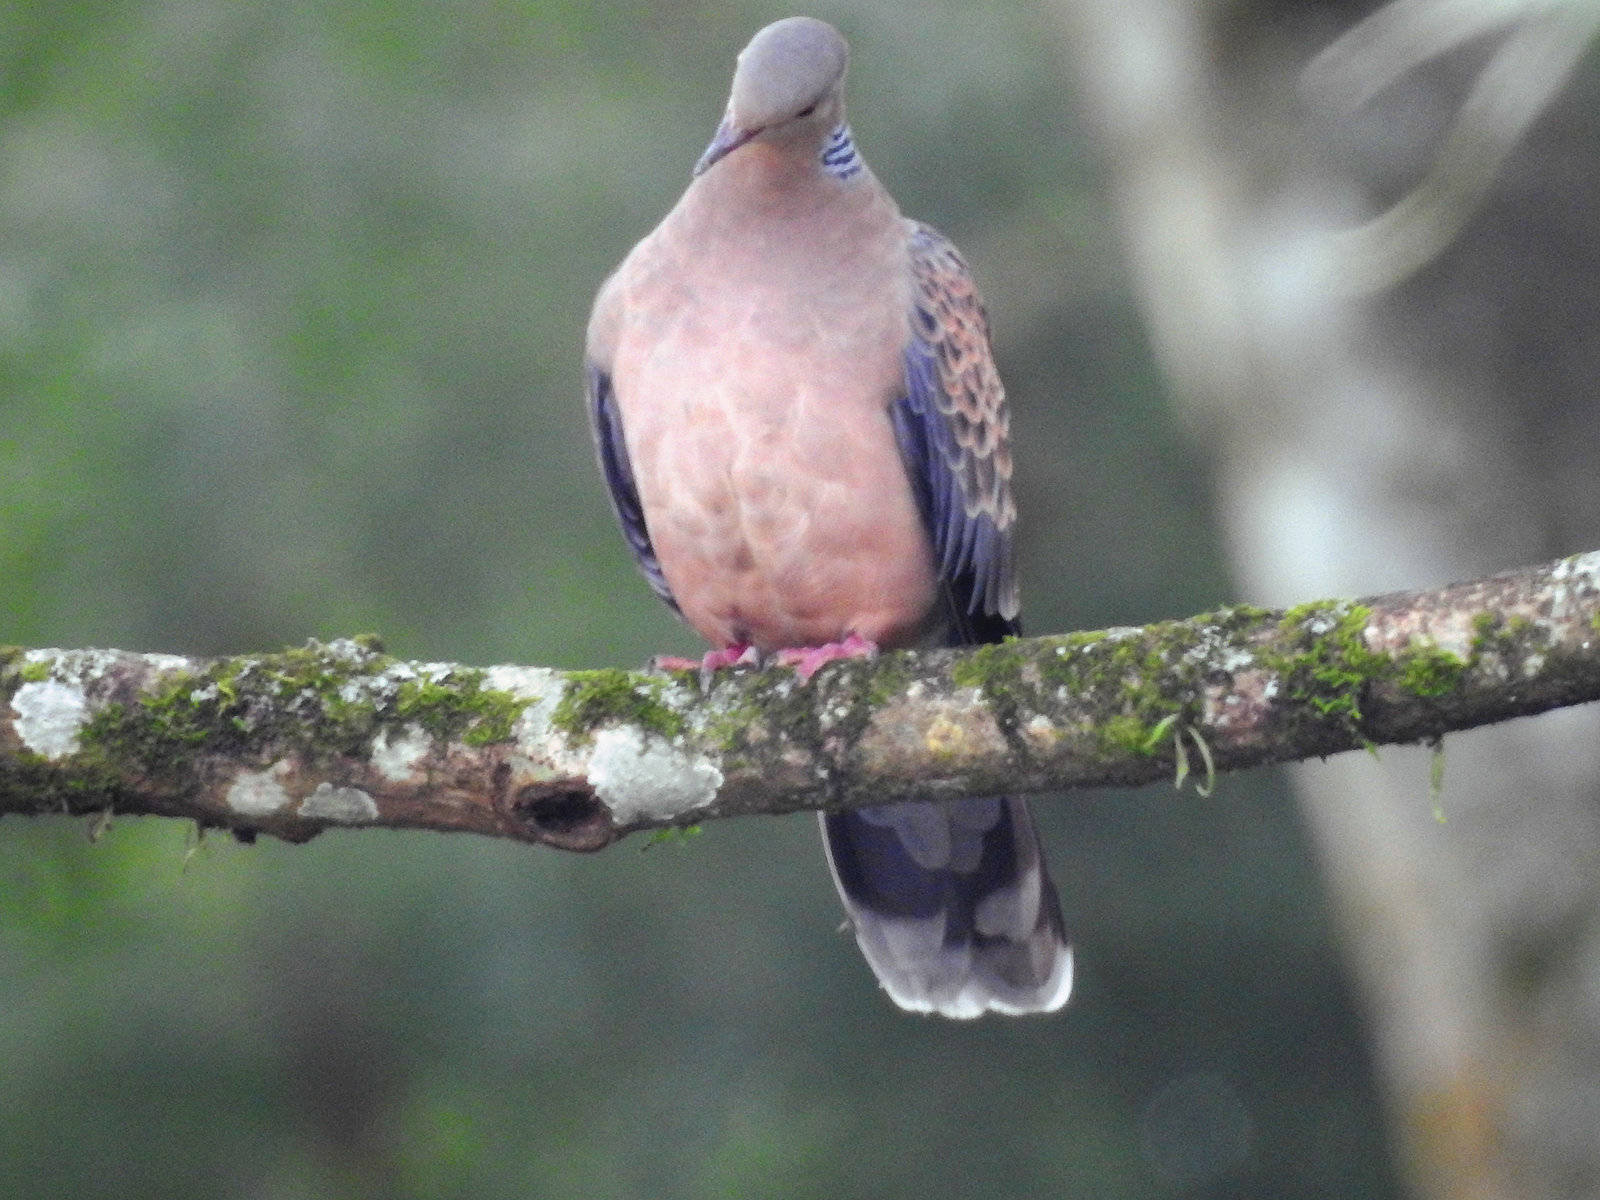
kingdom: Animalia
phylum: Chordata
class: Aves
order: Columbiformes
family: Columbidae
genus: Streptopelia
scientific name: Streptopelia orientalis
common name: Oriental turtle dove
